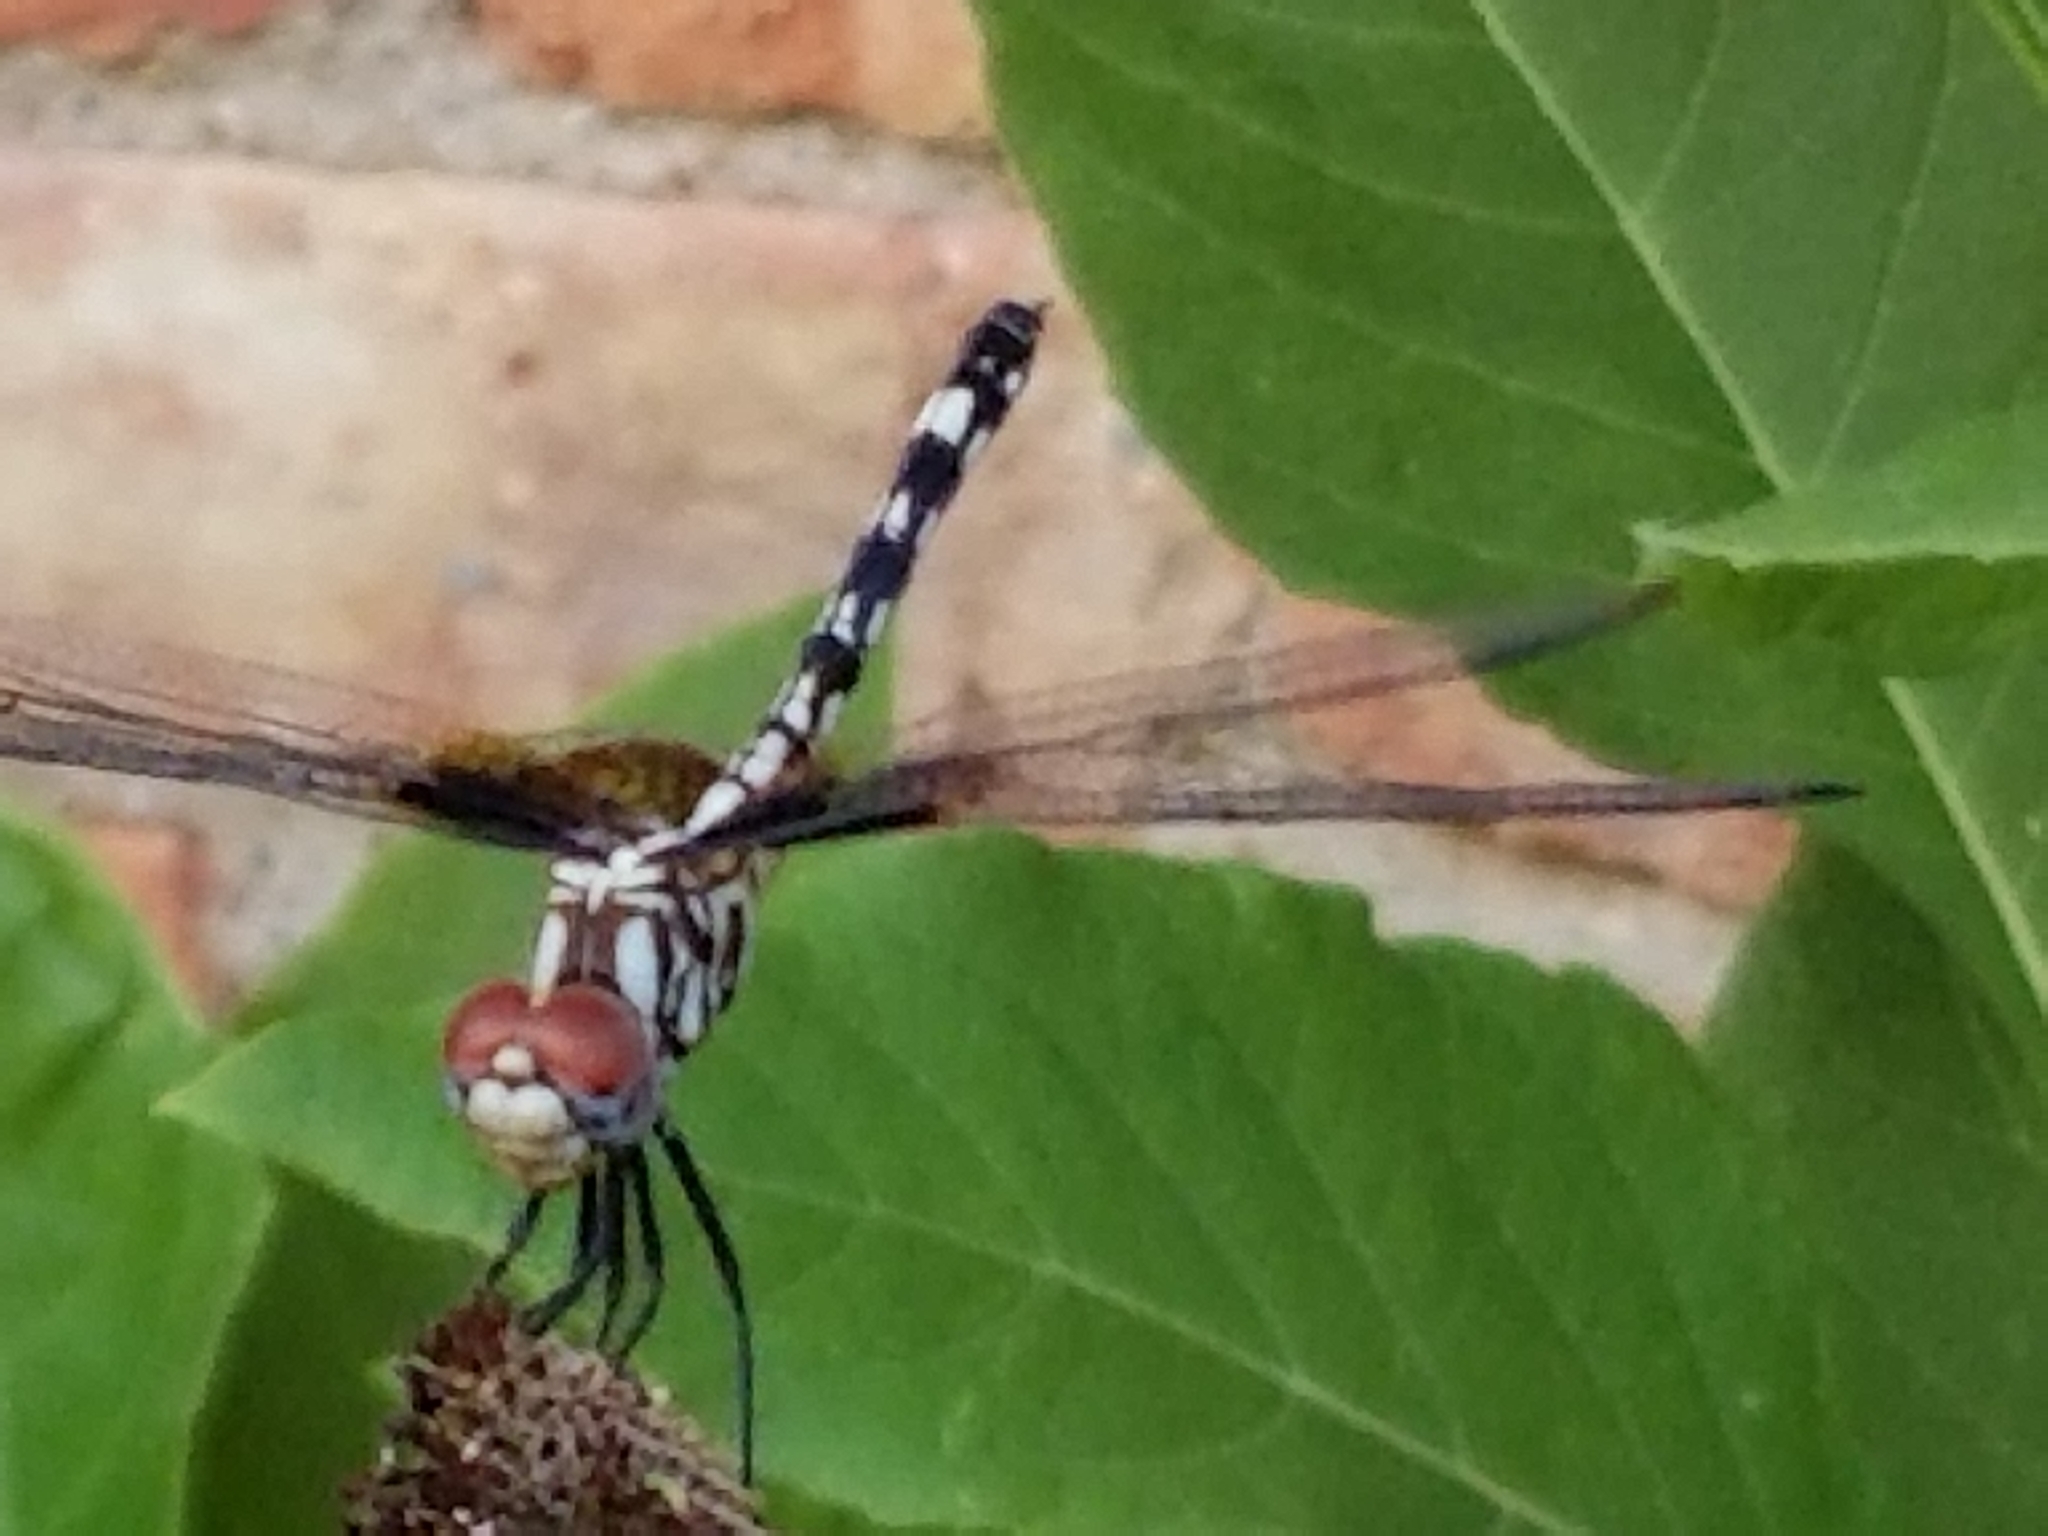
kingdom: Animalia
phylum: Arthropoda
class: Insecta
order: Odonata
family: Libellulidae
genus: Dythemis
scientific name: Dythemis fugax
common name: Checkered setwing
